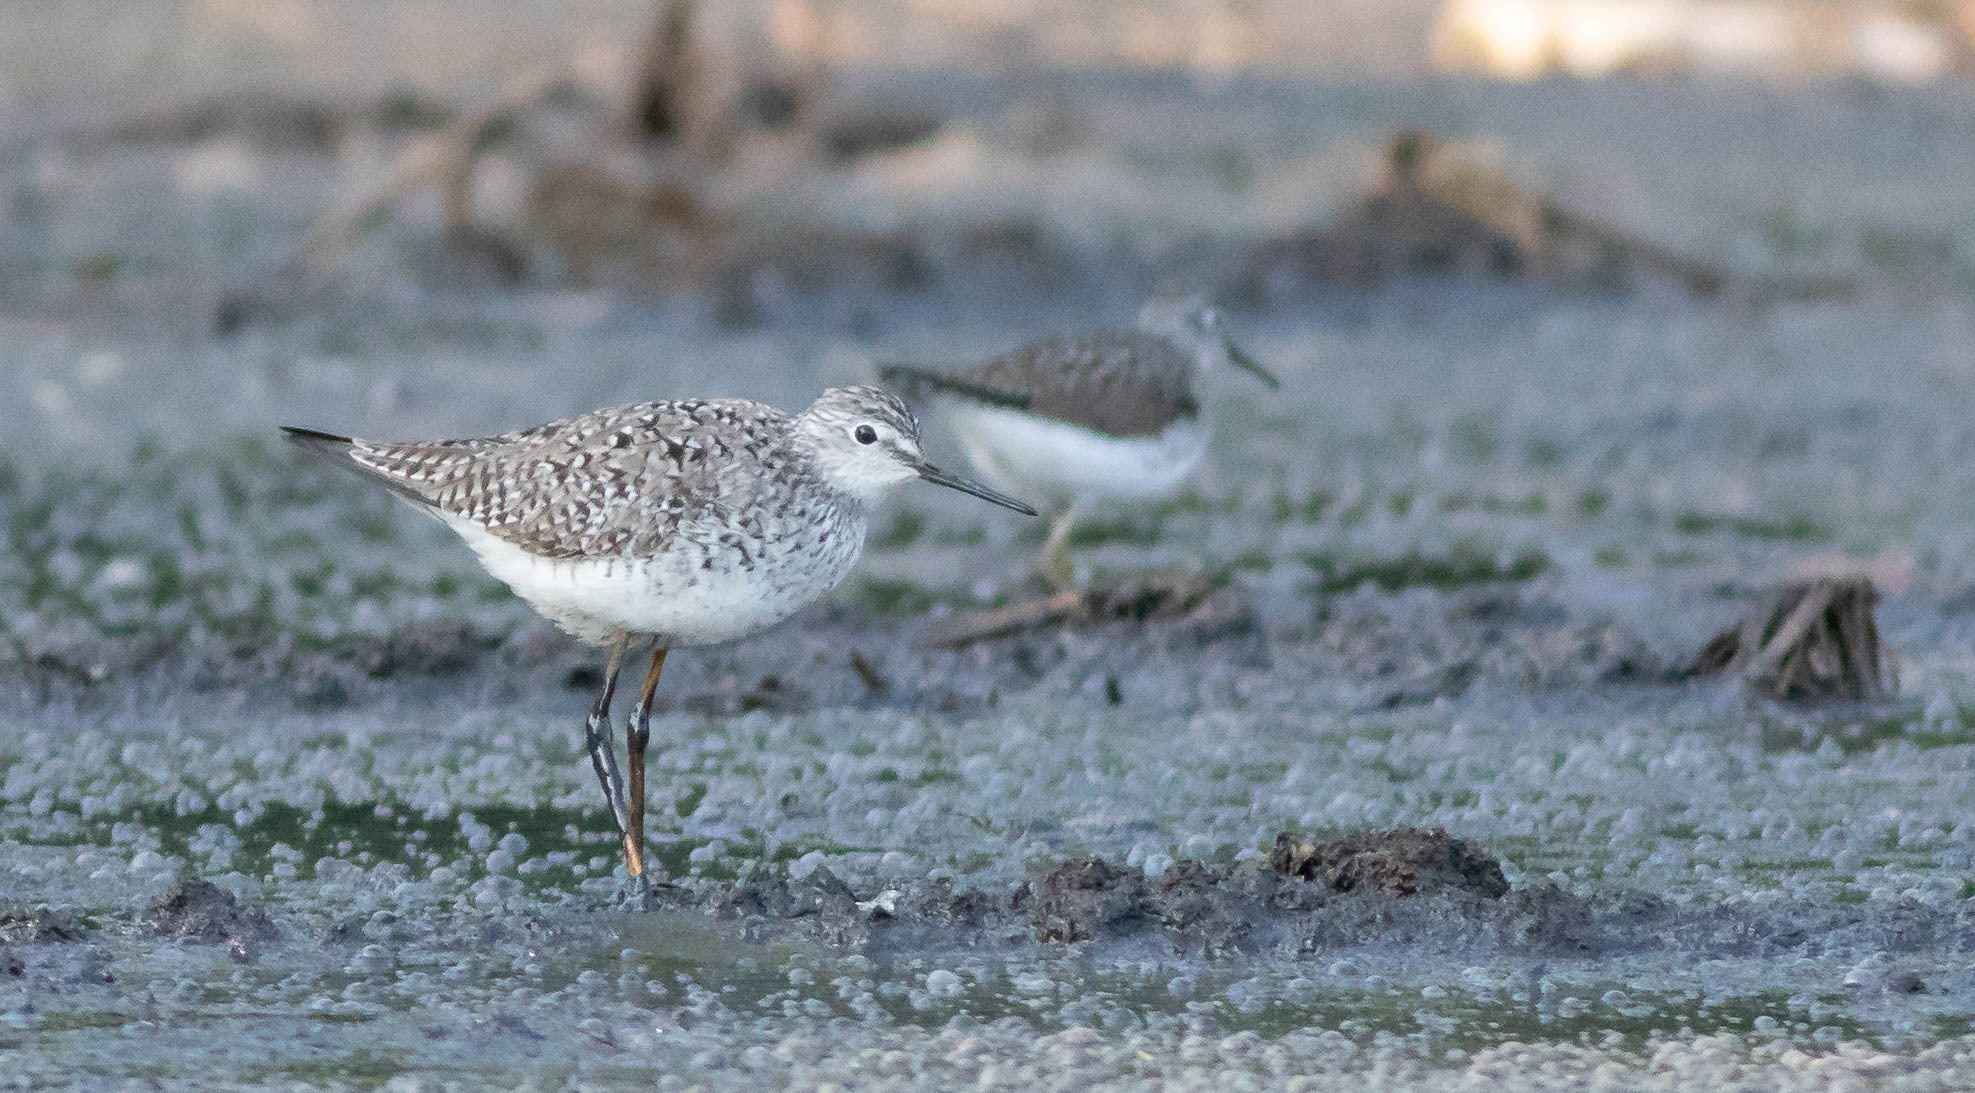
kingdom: Animalia
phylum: Chordata
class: Aves
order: Charadriiformes
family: Scolopacidae
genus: Tringa
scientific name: Tringa flavipes
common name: Lesser yellowlegs
